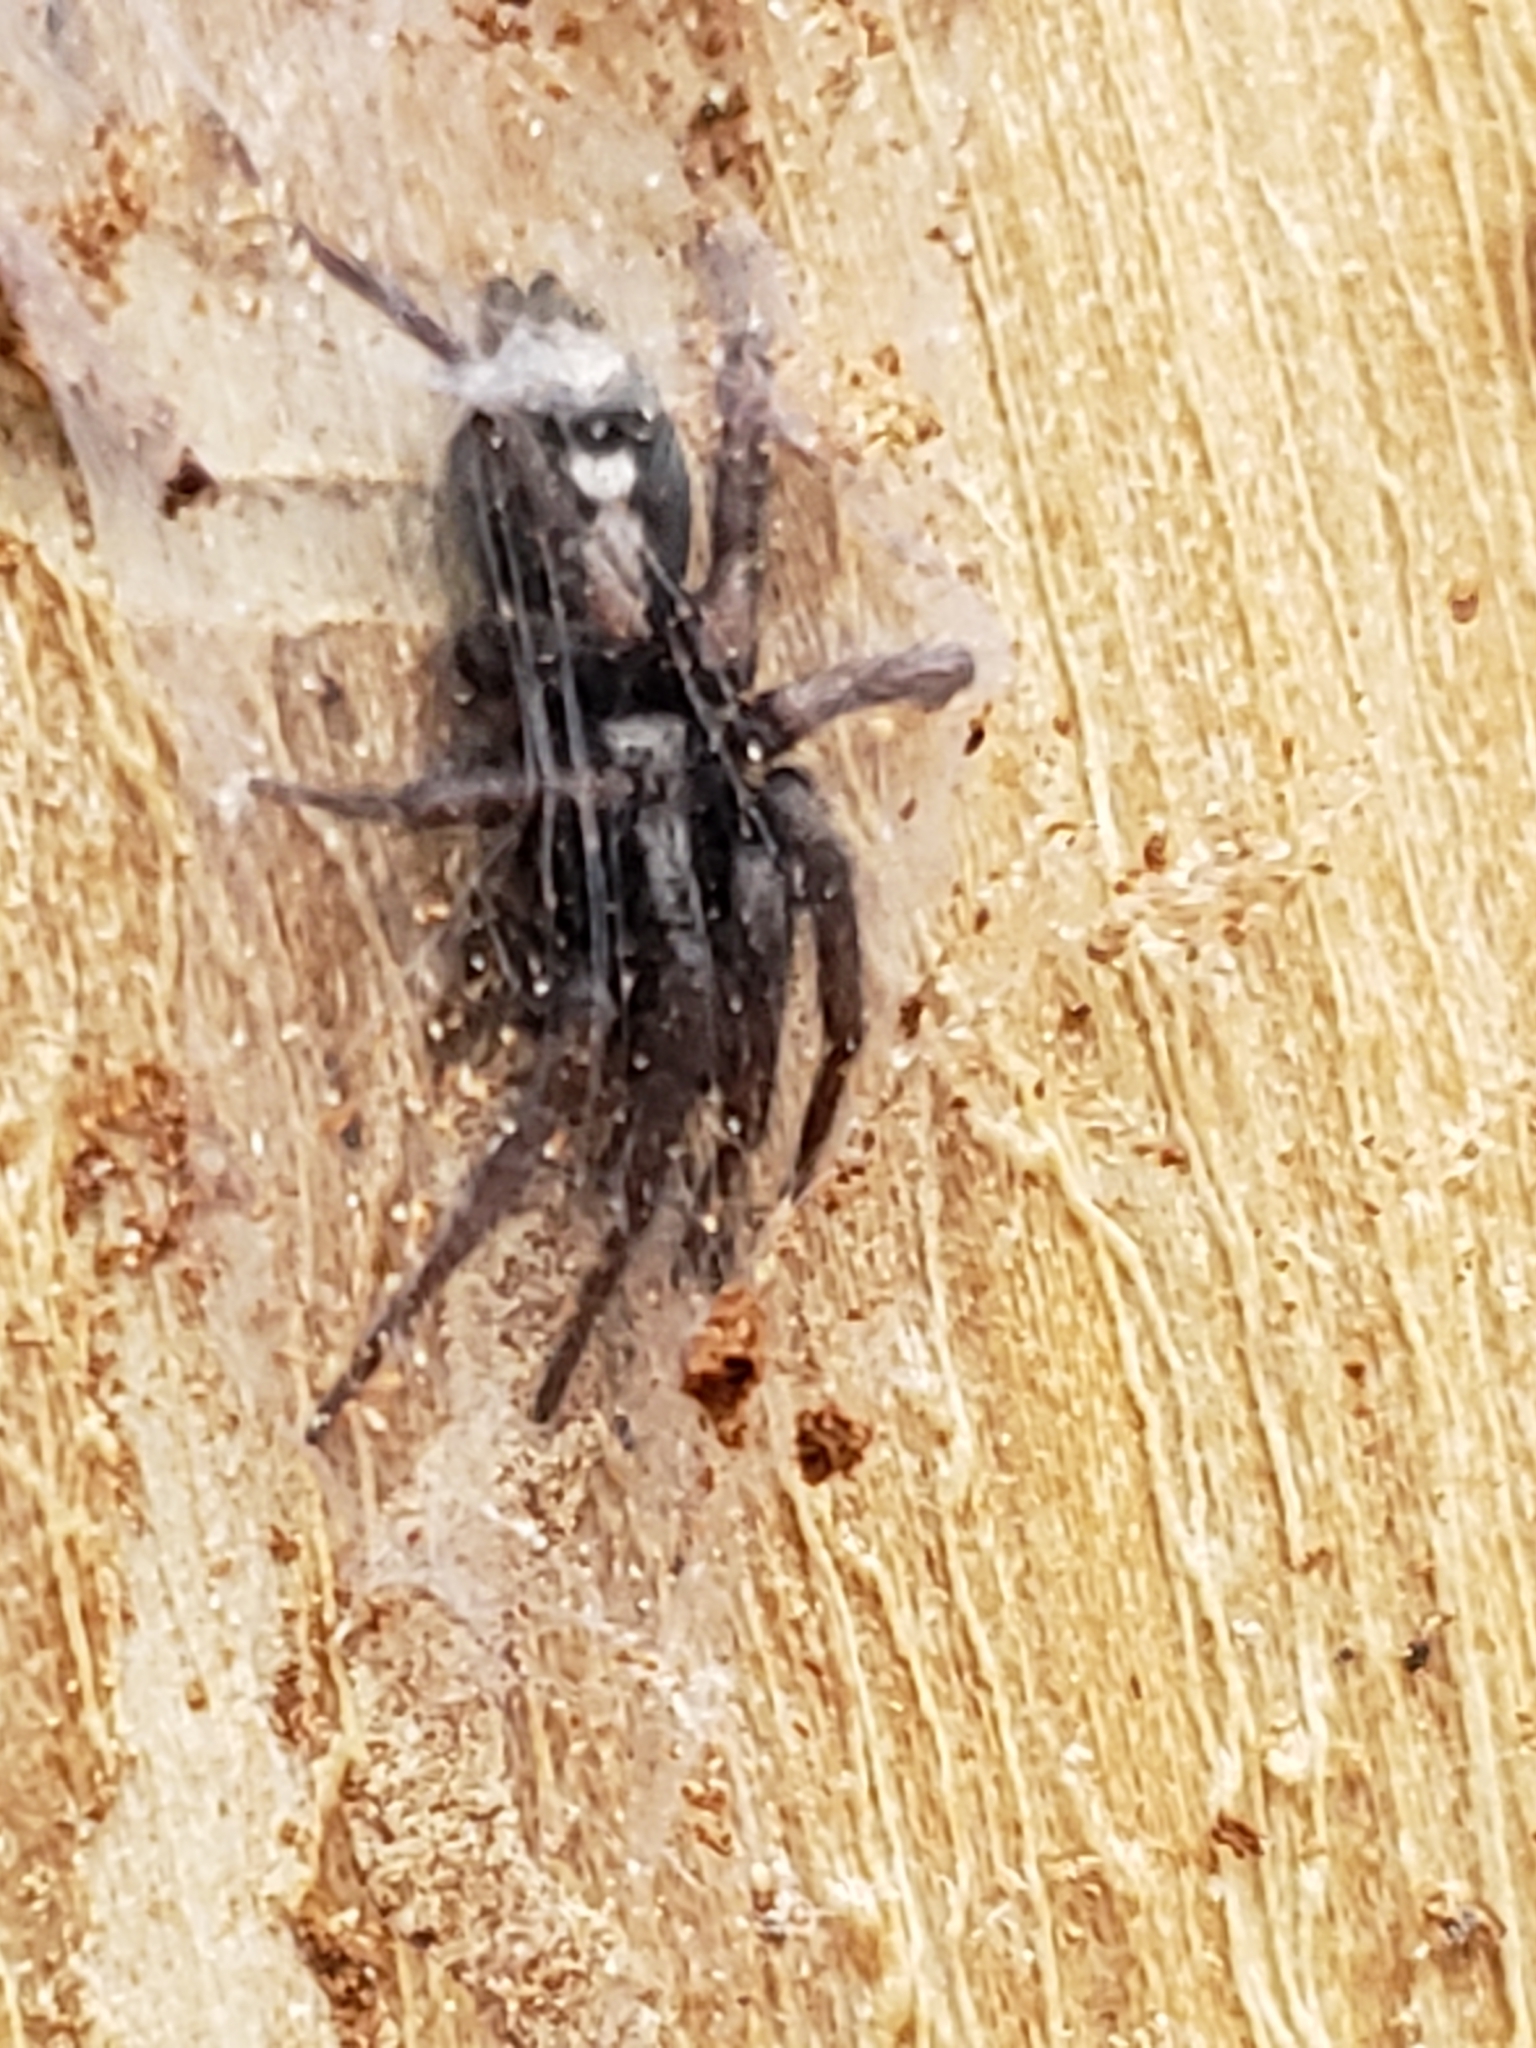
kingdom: Animalia
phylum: Arthropoda
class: Arachnida
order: Araneae
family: Gnaphosidae
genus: Herpyllus
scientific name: Herpyllus ecclesiasticus
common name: Eastern parson spider
